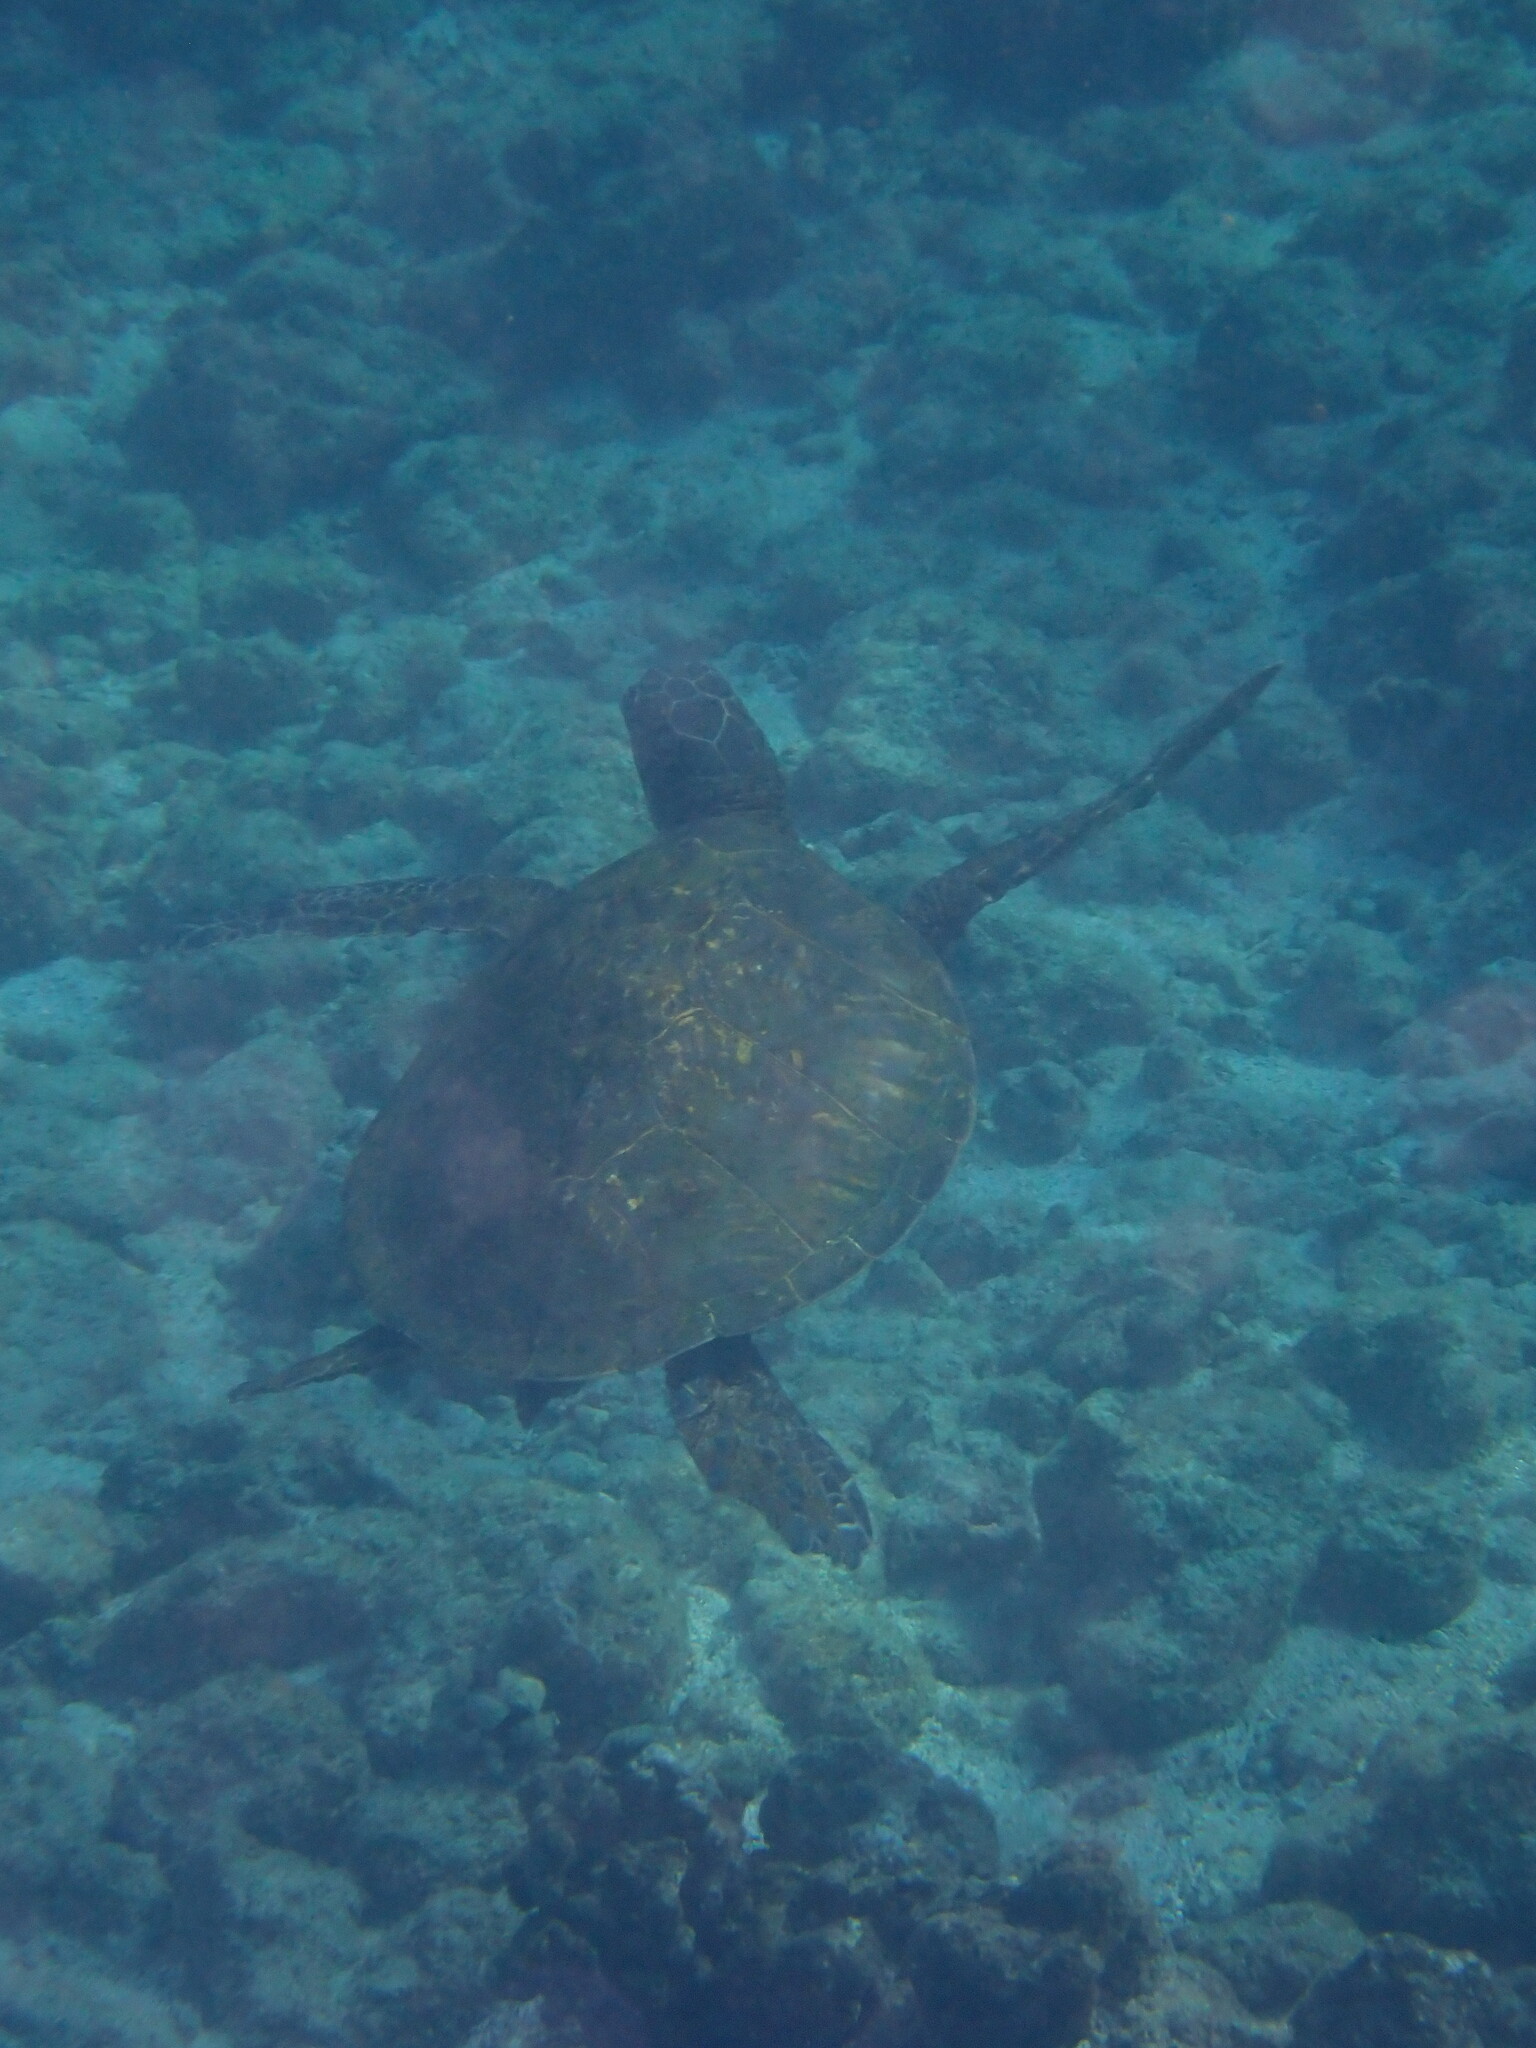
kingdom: Animalia
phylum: Chordata
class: Testudines
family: Cheloniidae
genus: Chelonia
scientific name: Chelonia mydas
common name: Green turtle
